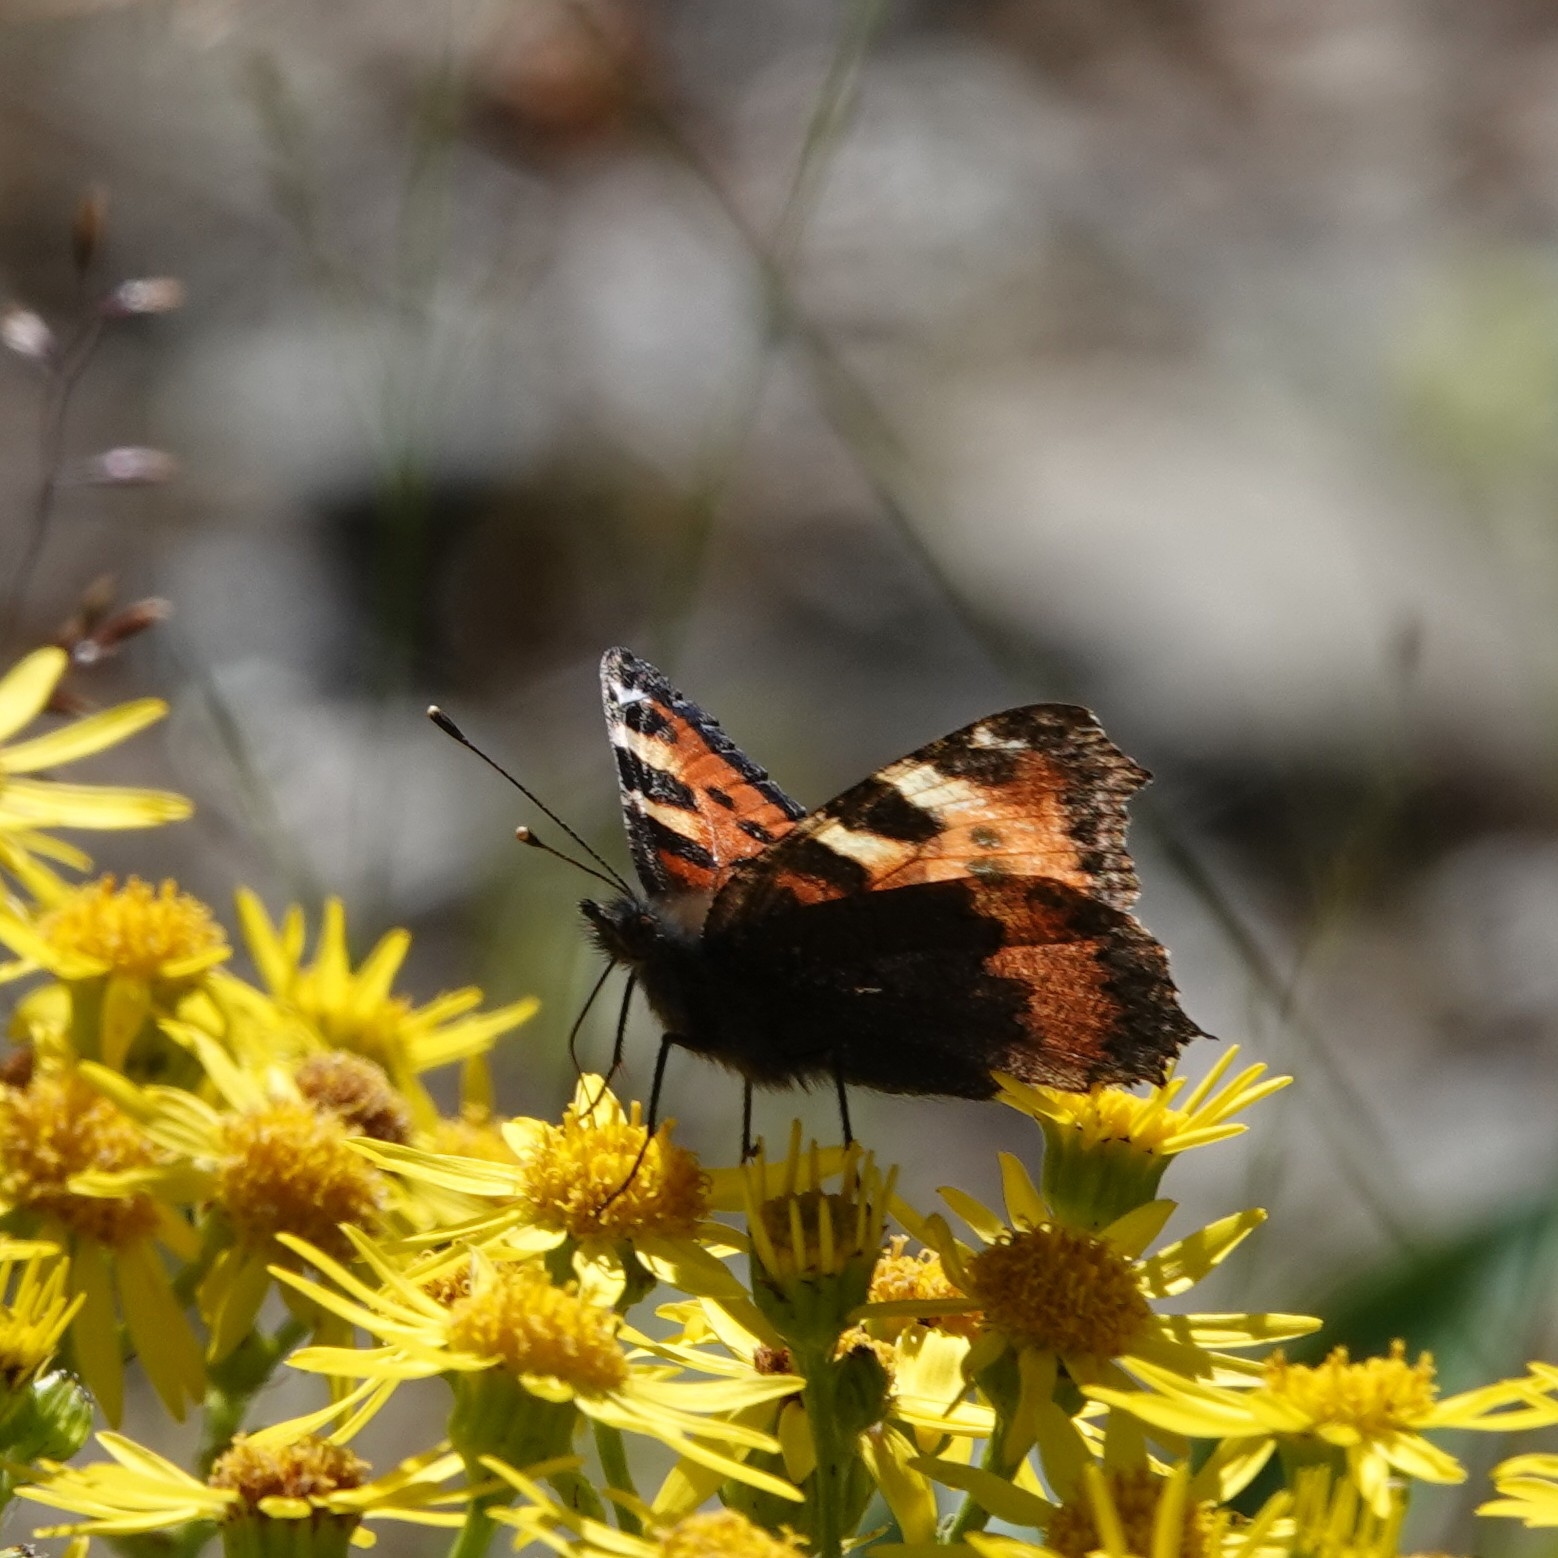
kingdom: Animalia
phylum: Arthropoda
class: Insecta
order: Lepidoptera
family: Nymphalidae
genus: Aglais
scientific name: Aglais urticae
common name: Small tortoiseshell
